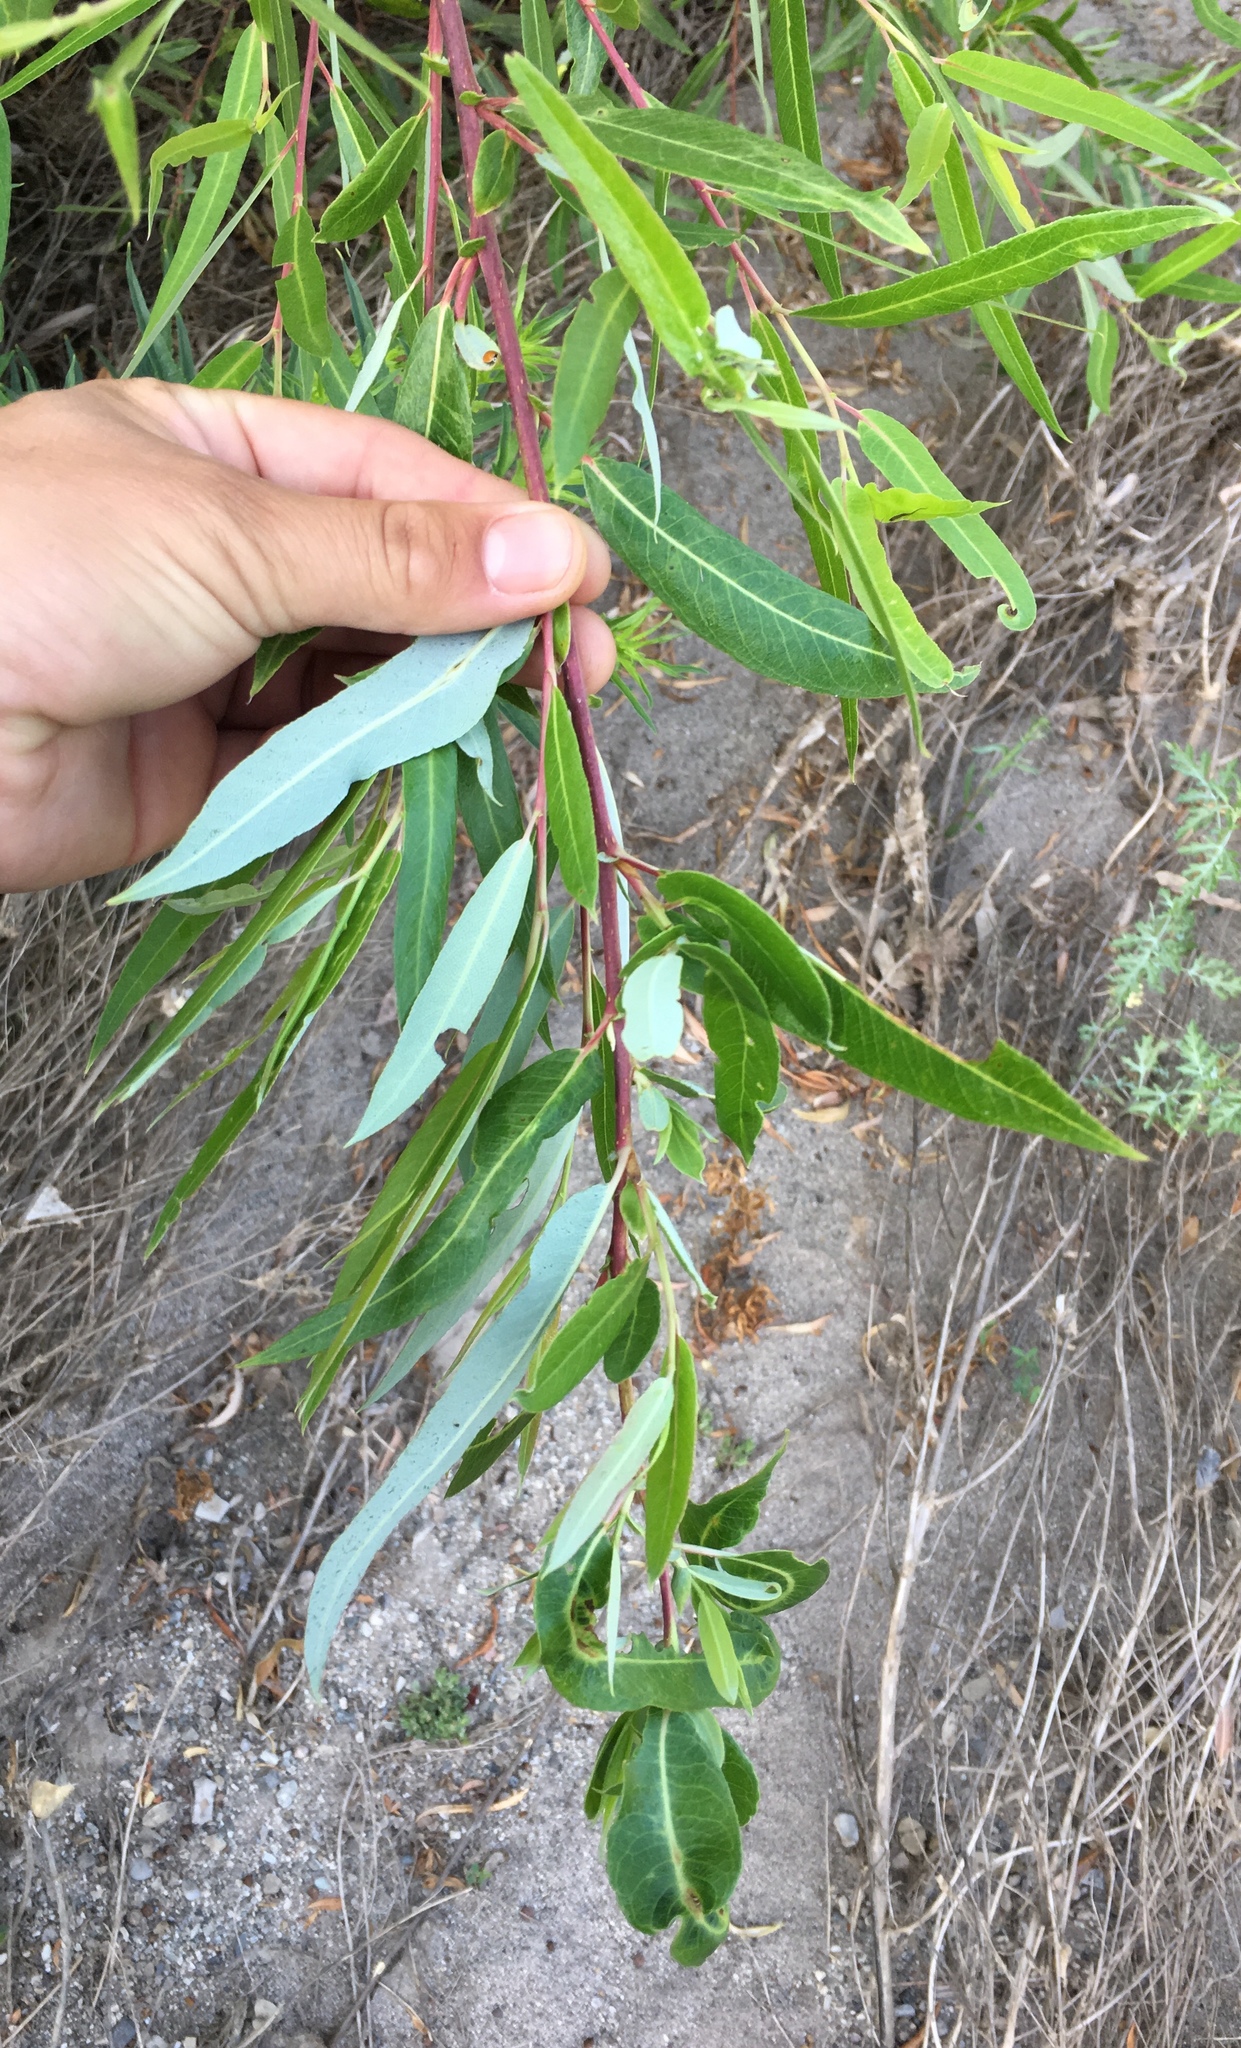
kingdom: Plantae
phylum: Tracheophyta
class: Magnoliopsida
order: Malpighiales
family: Salicaceae
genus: Salix
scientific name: Salix laevigata
